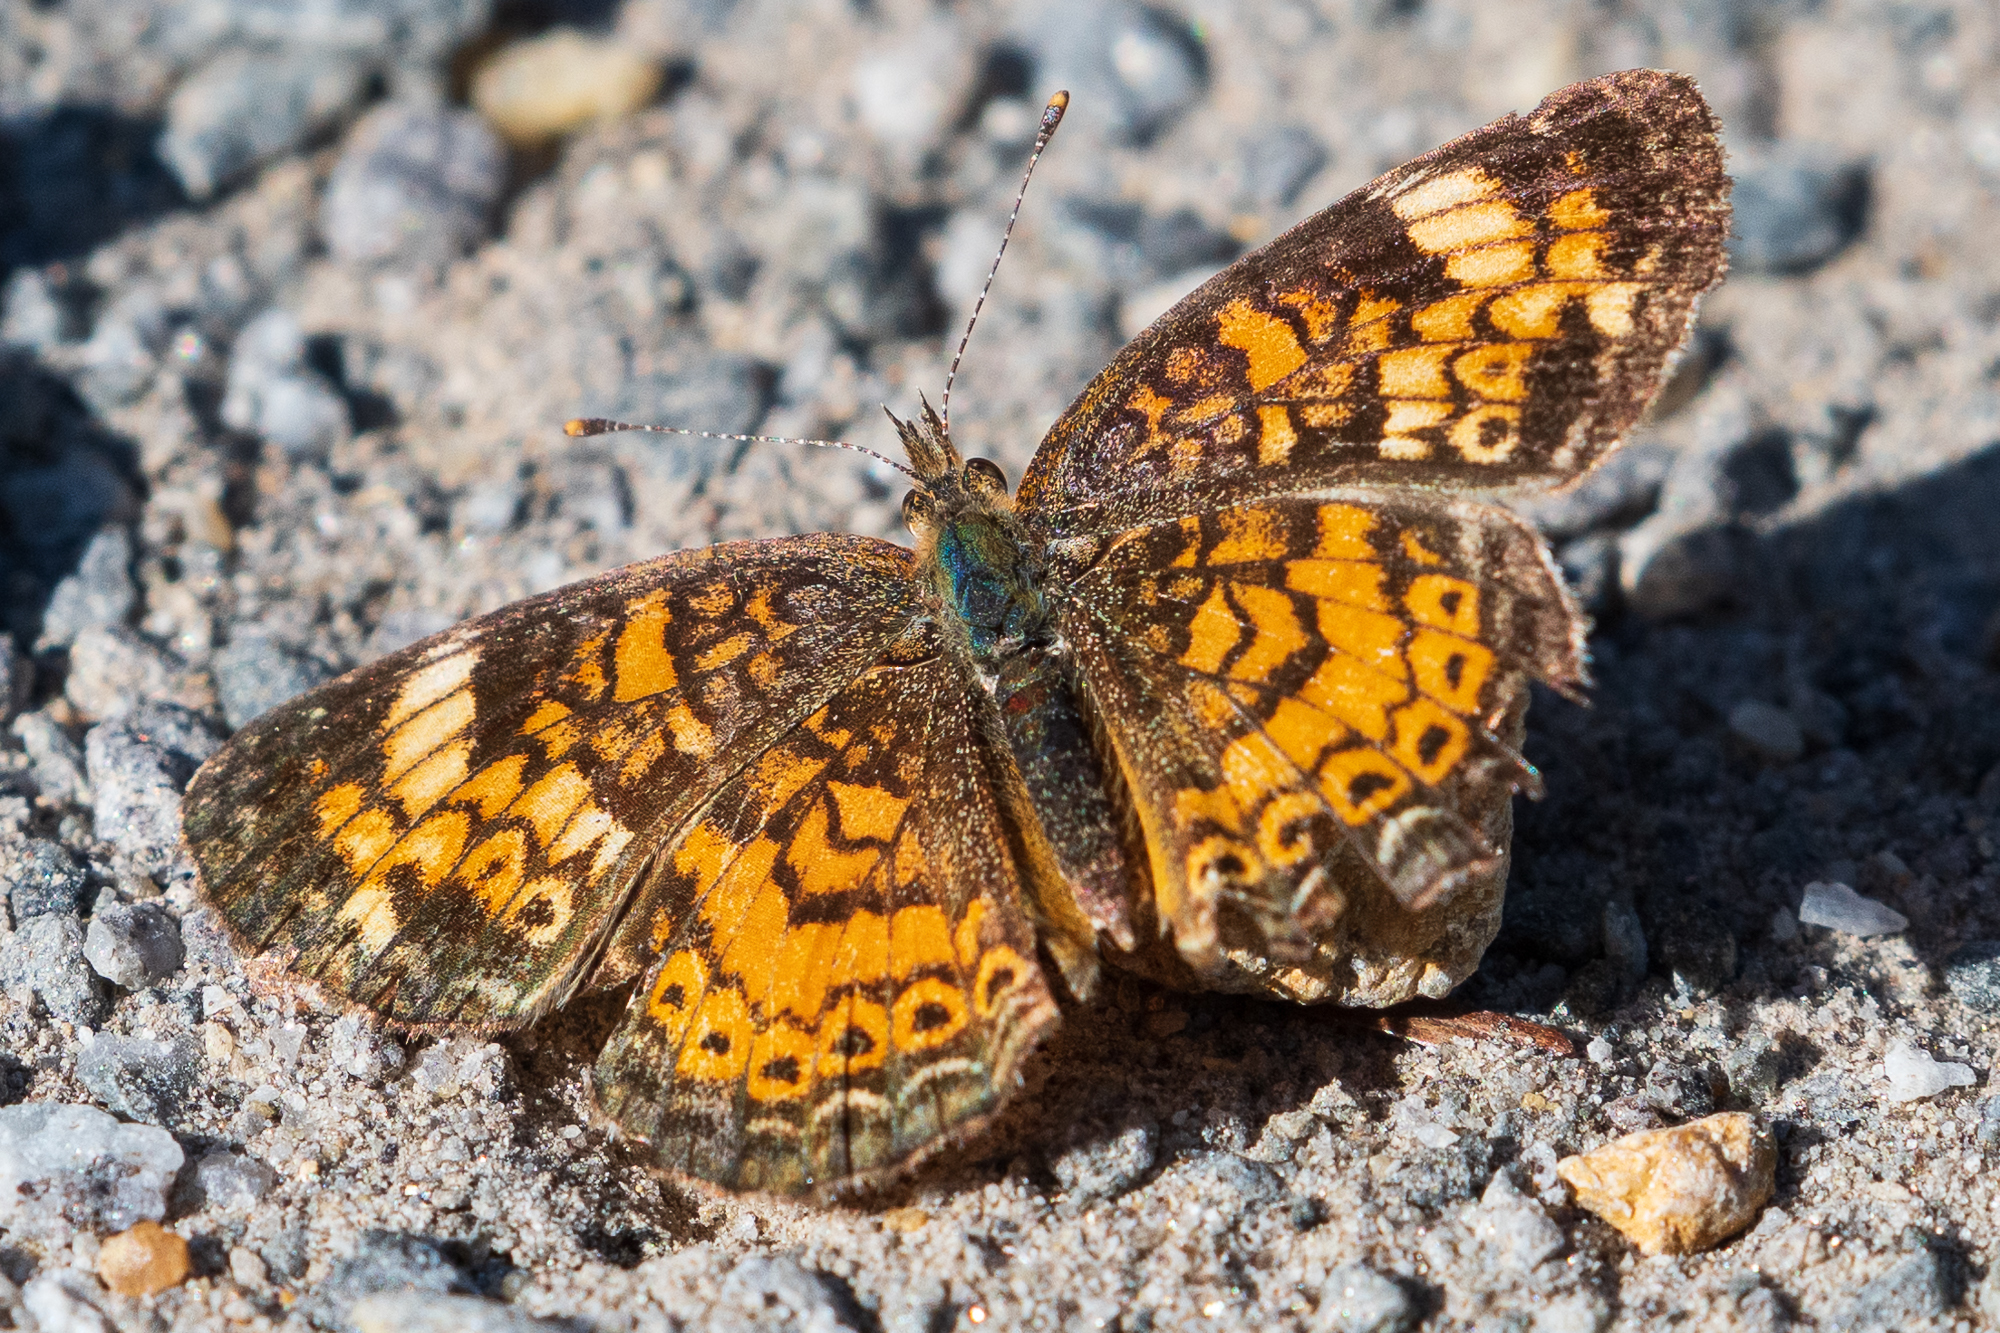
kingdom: Animalia
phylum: Arthropoda
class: Insecta
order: Lepidoptera
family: Nymphalidae
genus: Phyciodes
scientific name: Phyciodes tharos
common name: Pearl crescent
